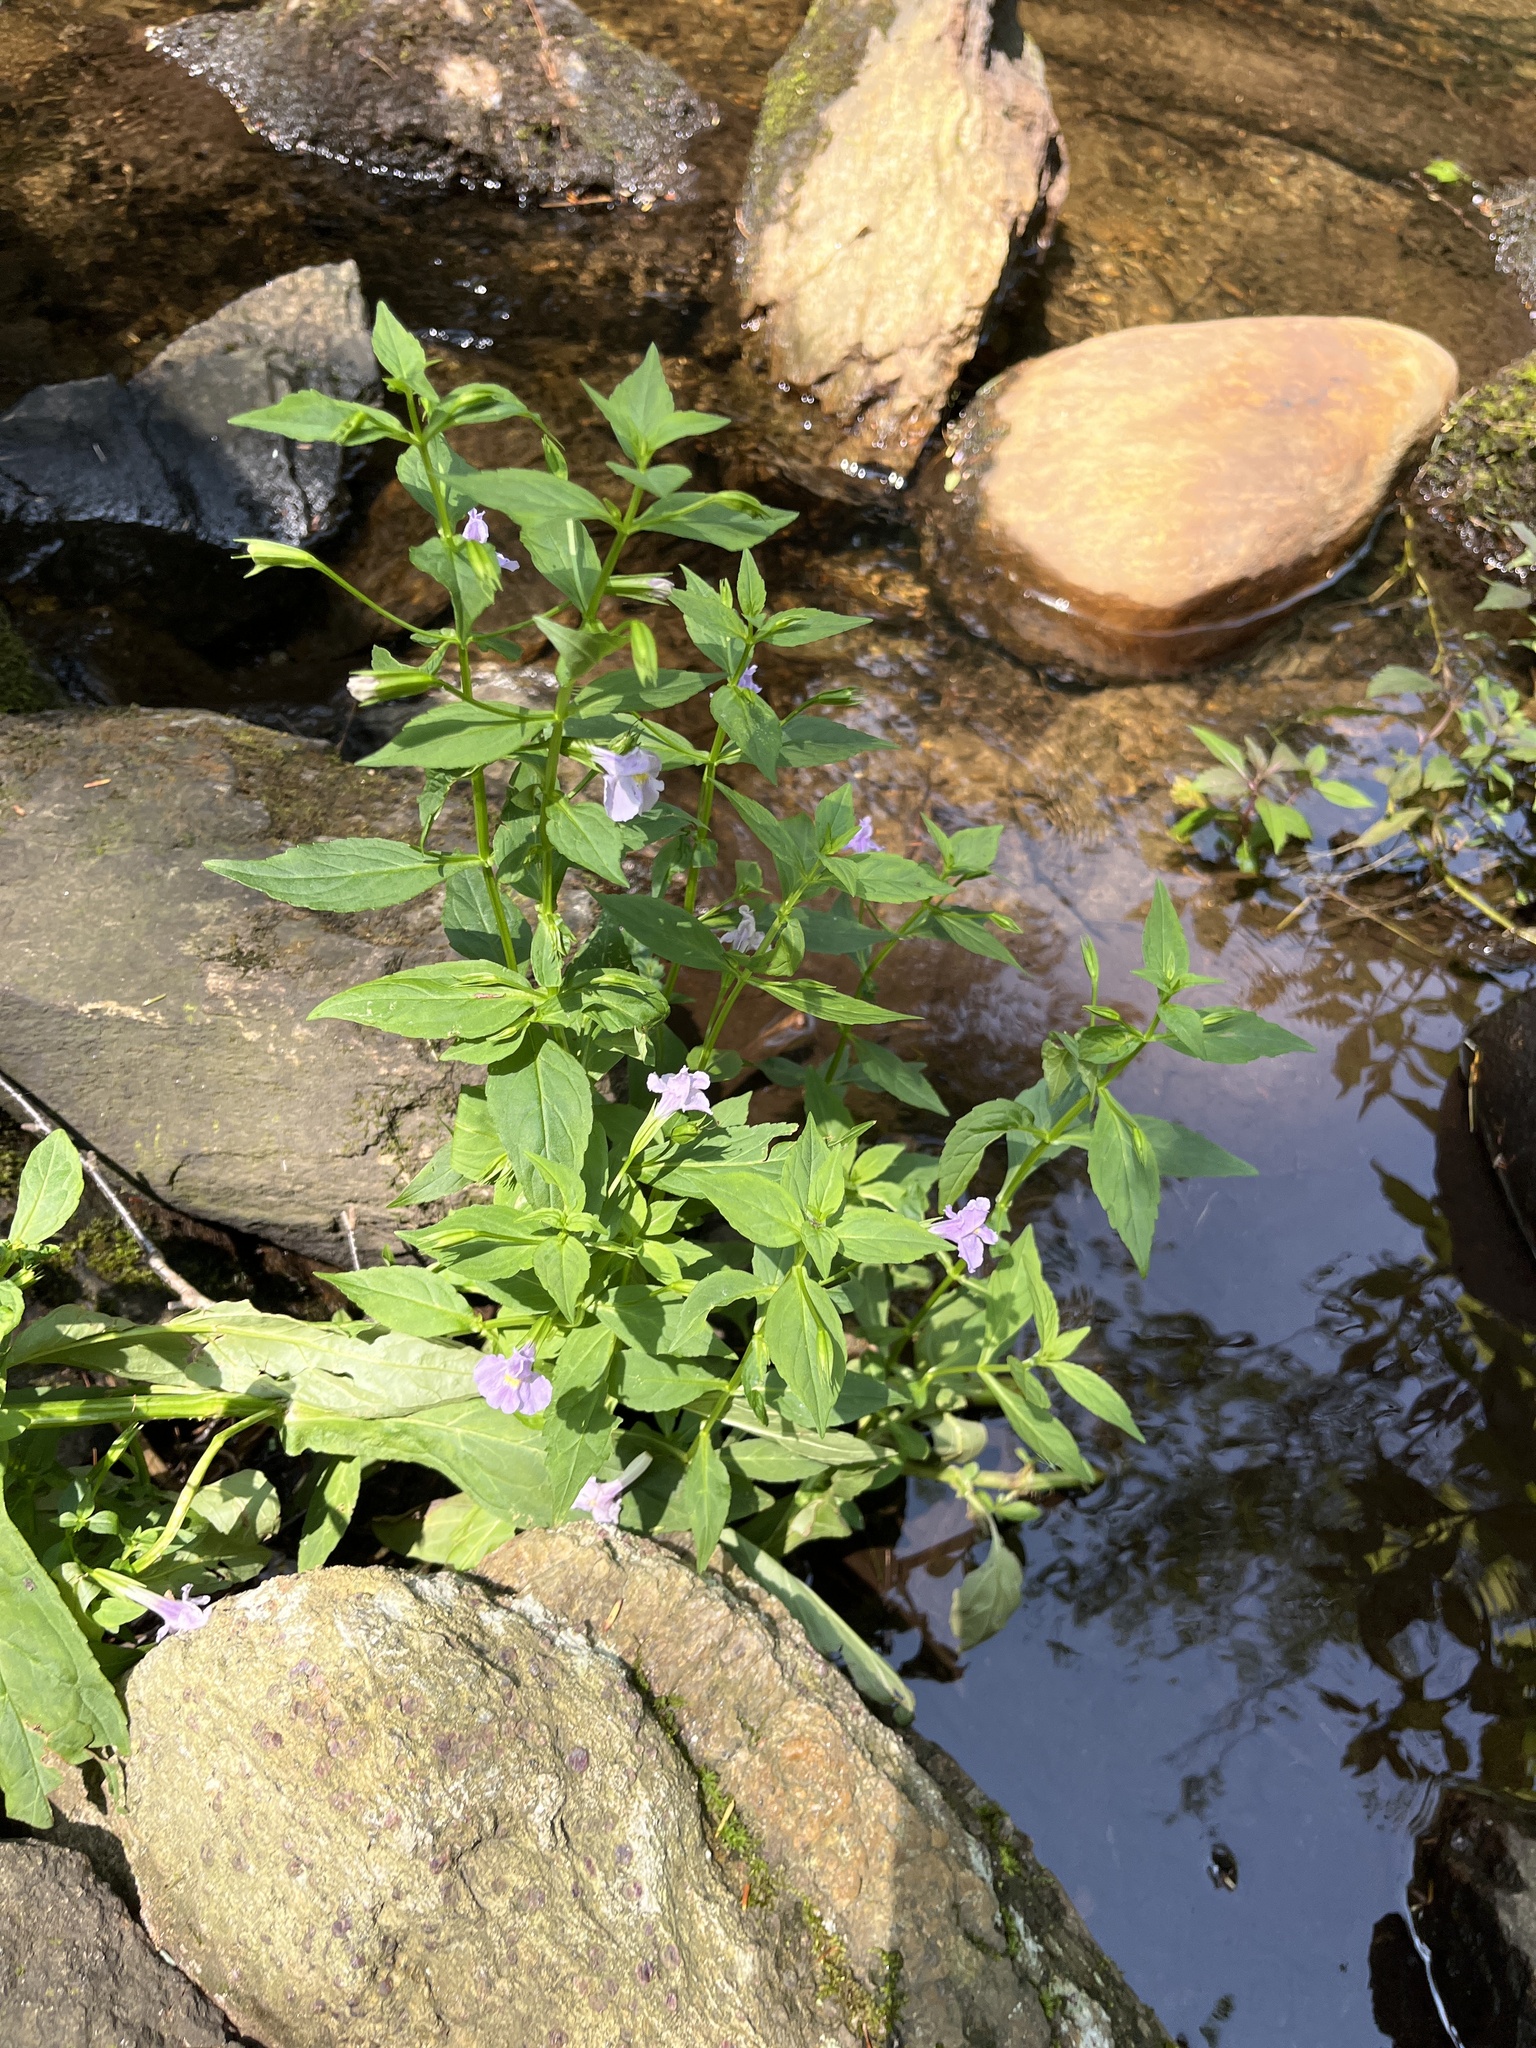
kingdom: Plantae
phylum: Tracheophyta
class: Magnoliopsida
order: Lamiales
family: Phrymaceae
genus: Mimulus
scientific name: Mimulus ringens
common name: Allegheny monkeyflower
